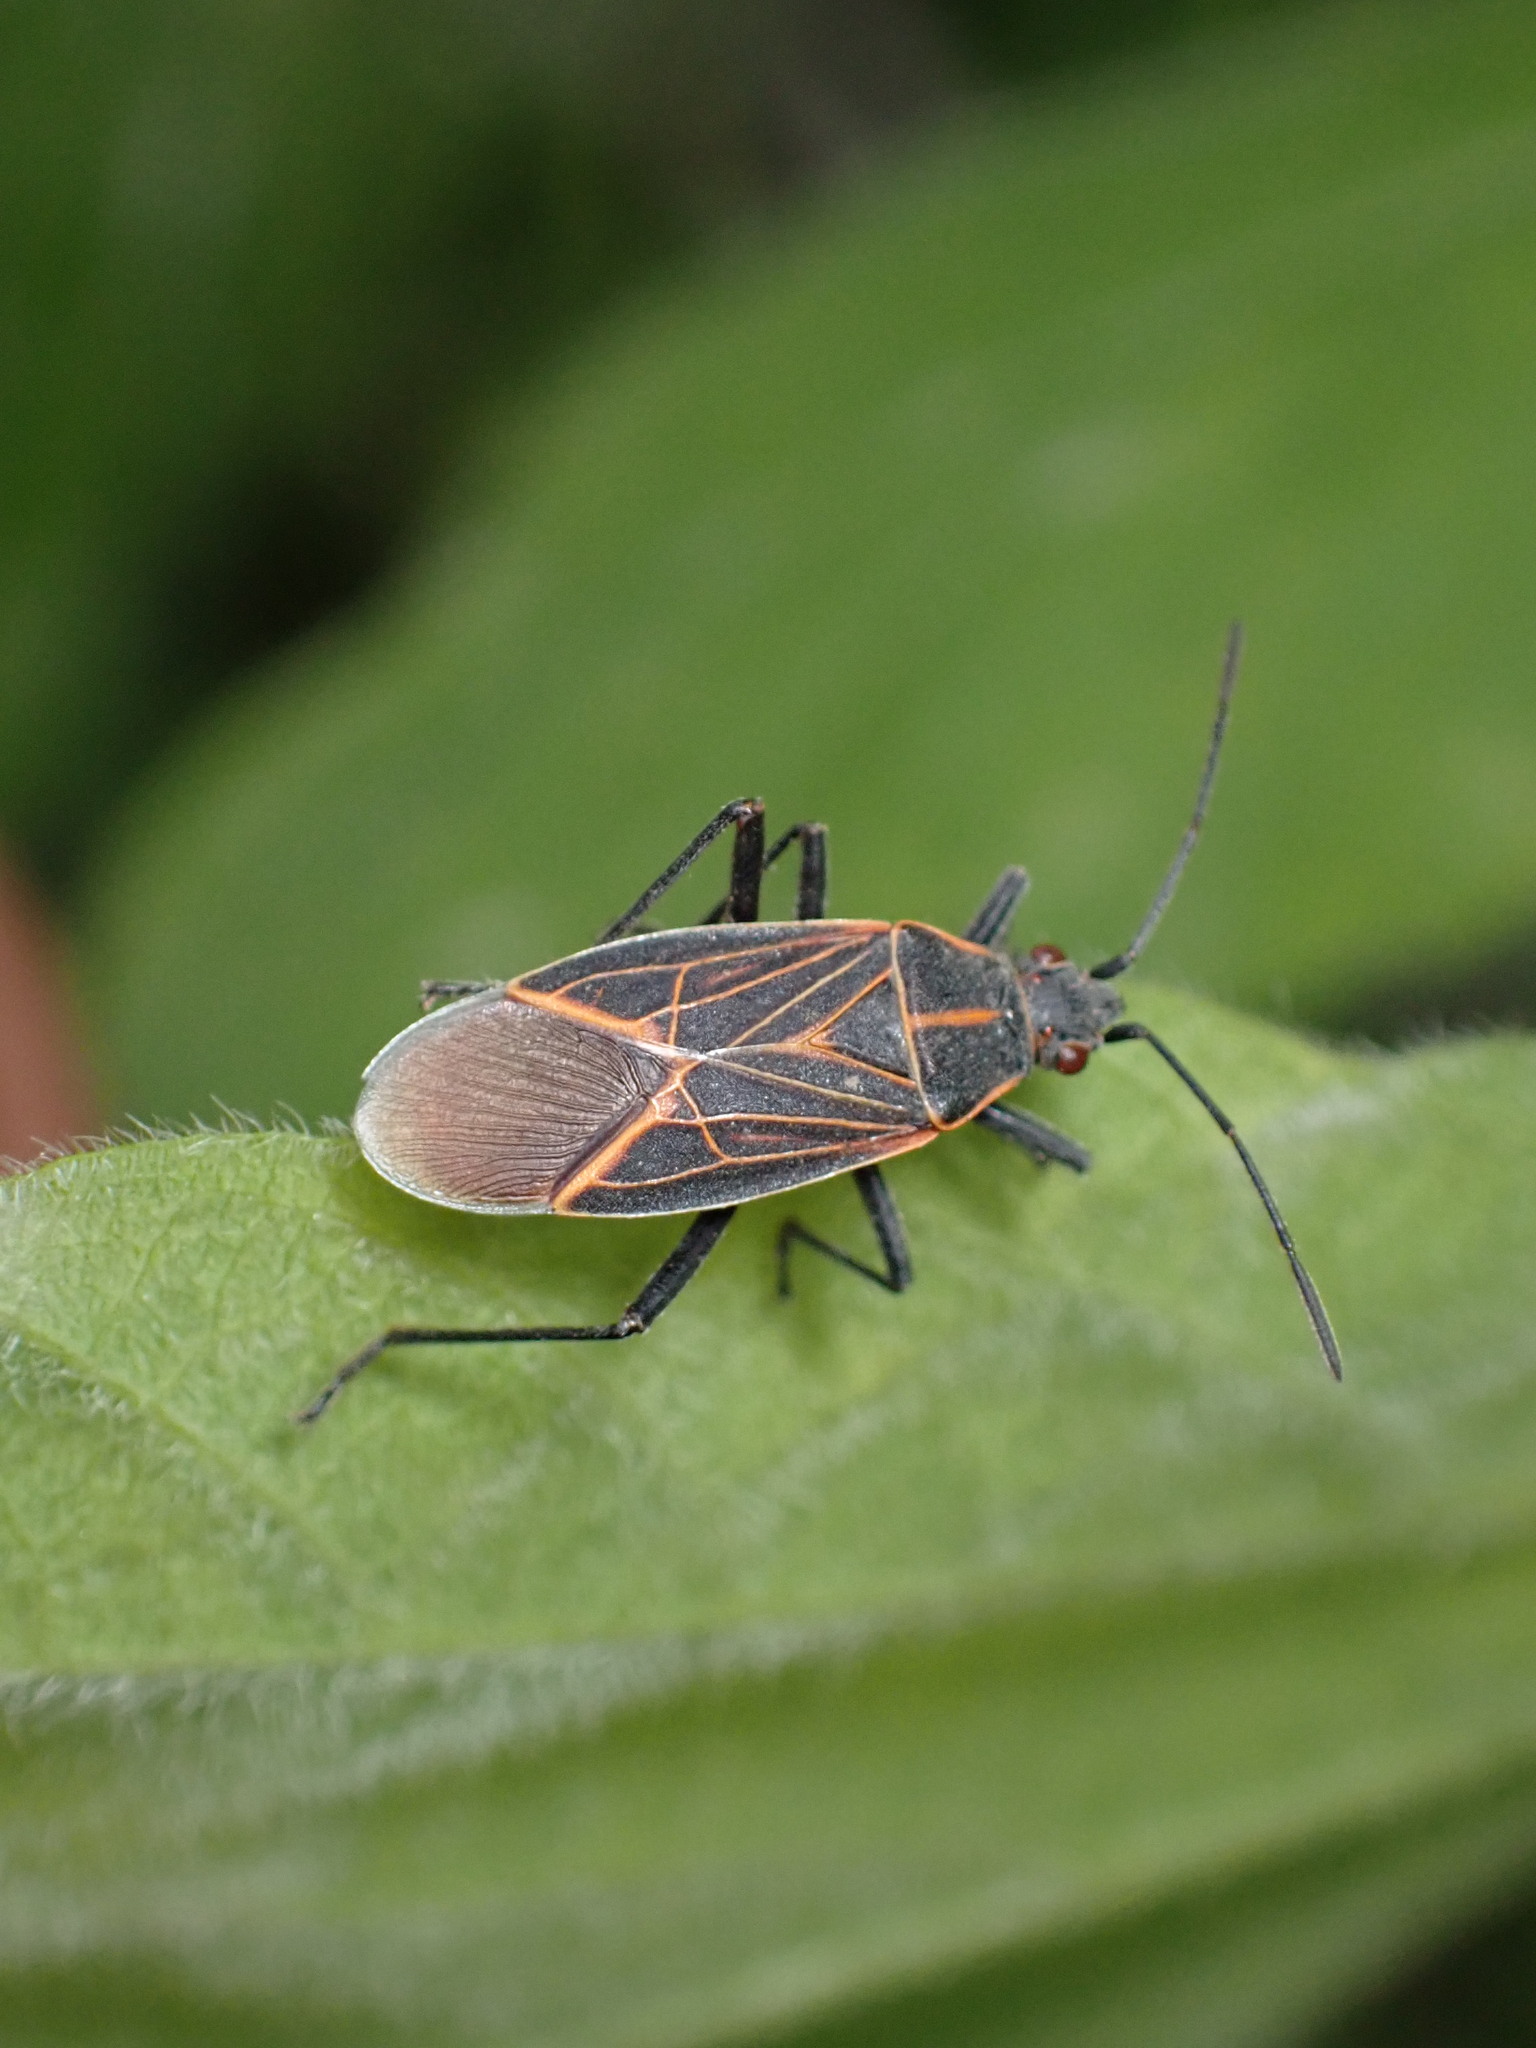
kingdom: Animalia
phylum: Arthropoda
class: Insecta
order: Hemiptera
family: Rhopalidae
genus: Boisea
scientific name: Boisea rubrolineata
